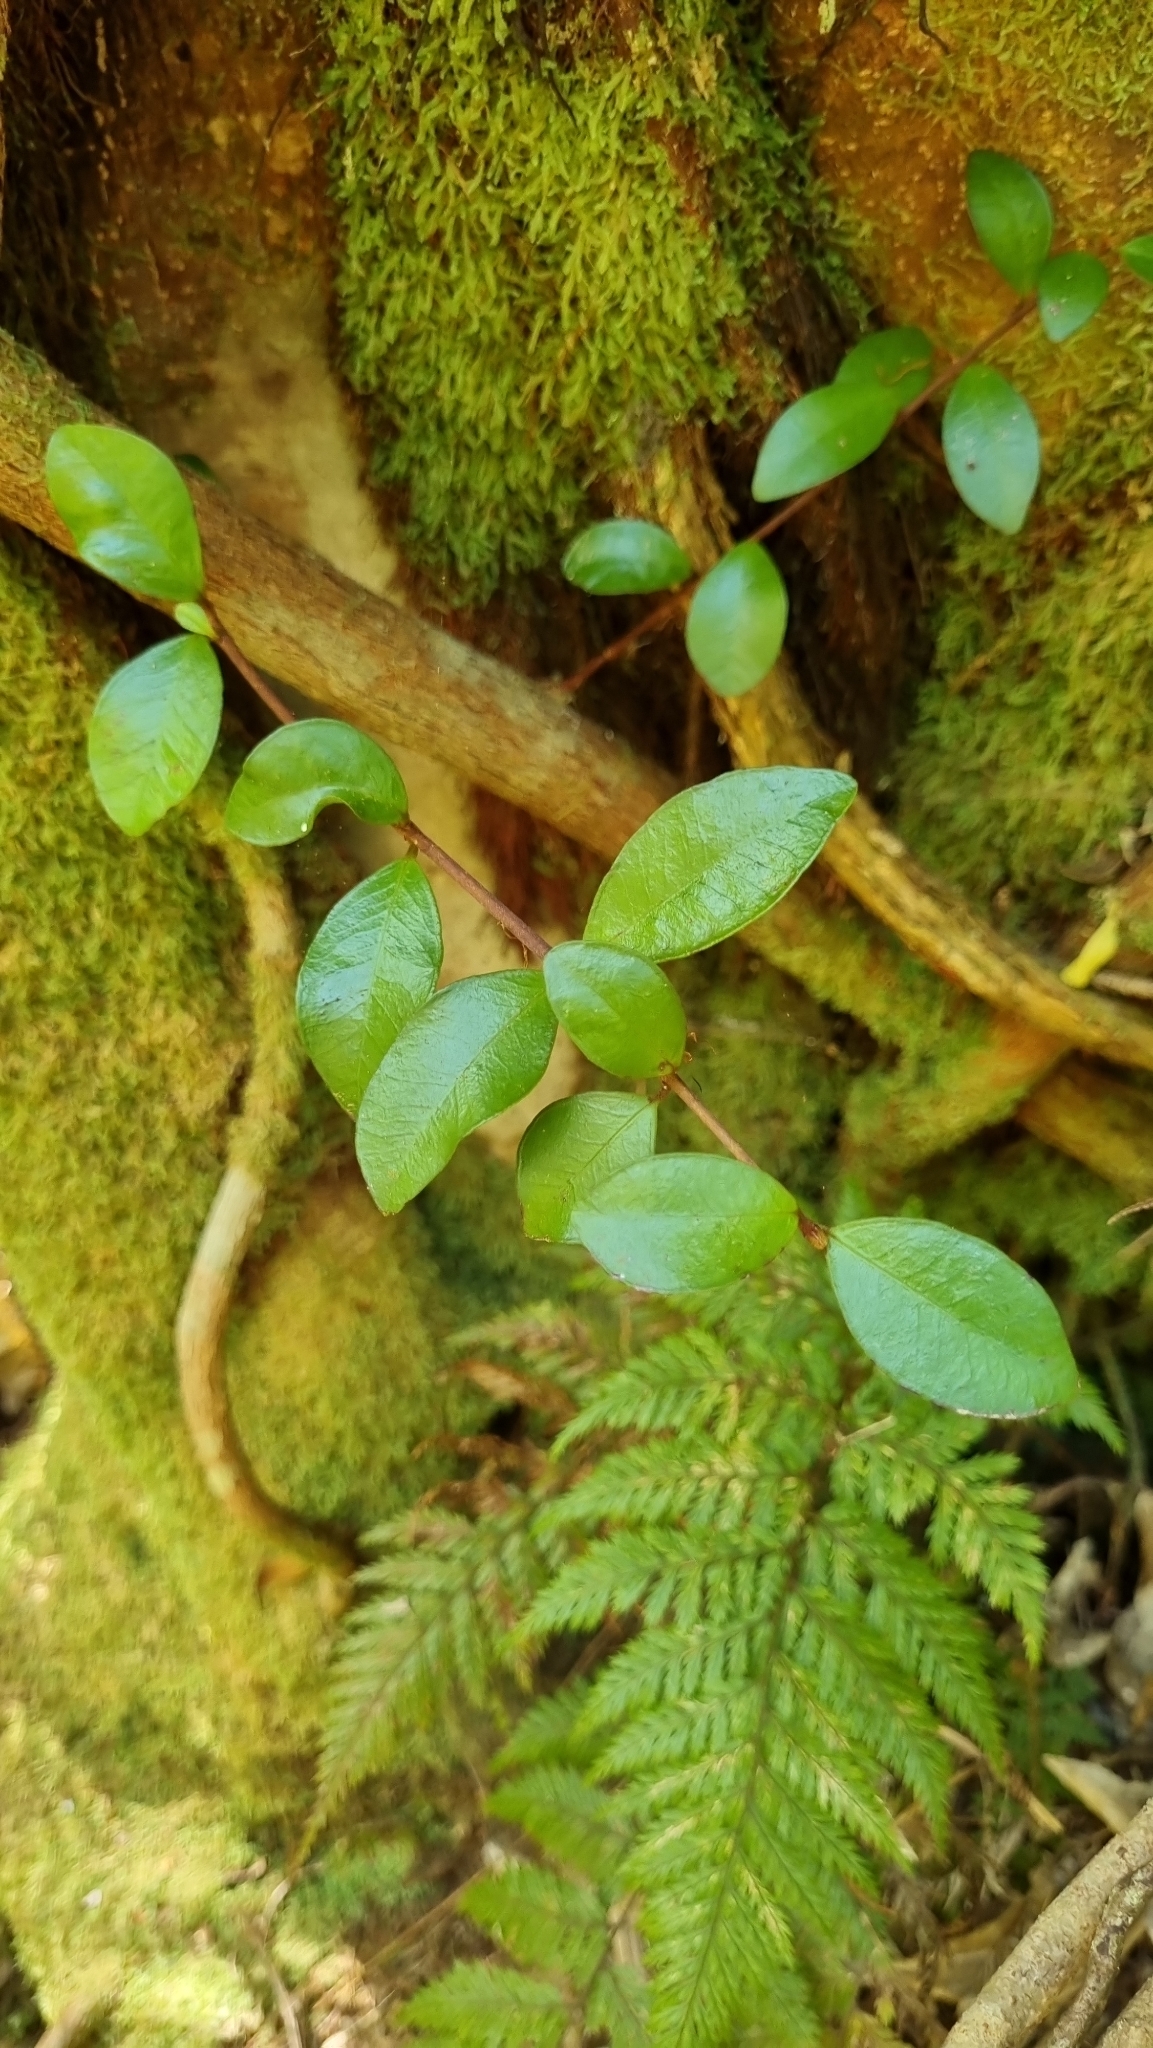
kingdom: Plantae
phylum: Tracheophyta
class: Magnoliopsida
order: Myrtales
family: Myrtaceae
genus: Metrosideros
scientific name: Metrosideros fulgens
